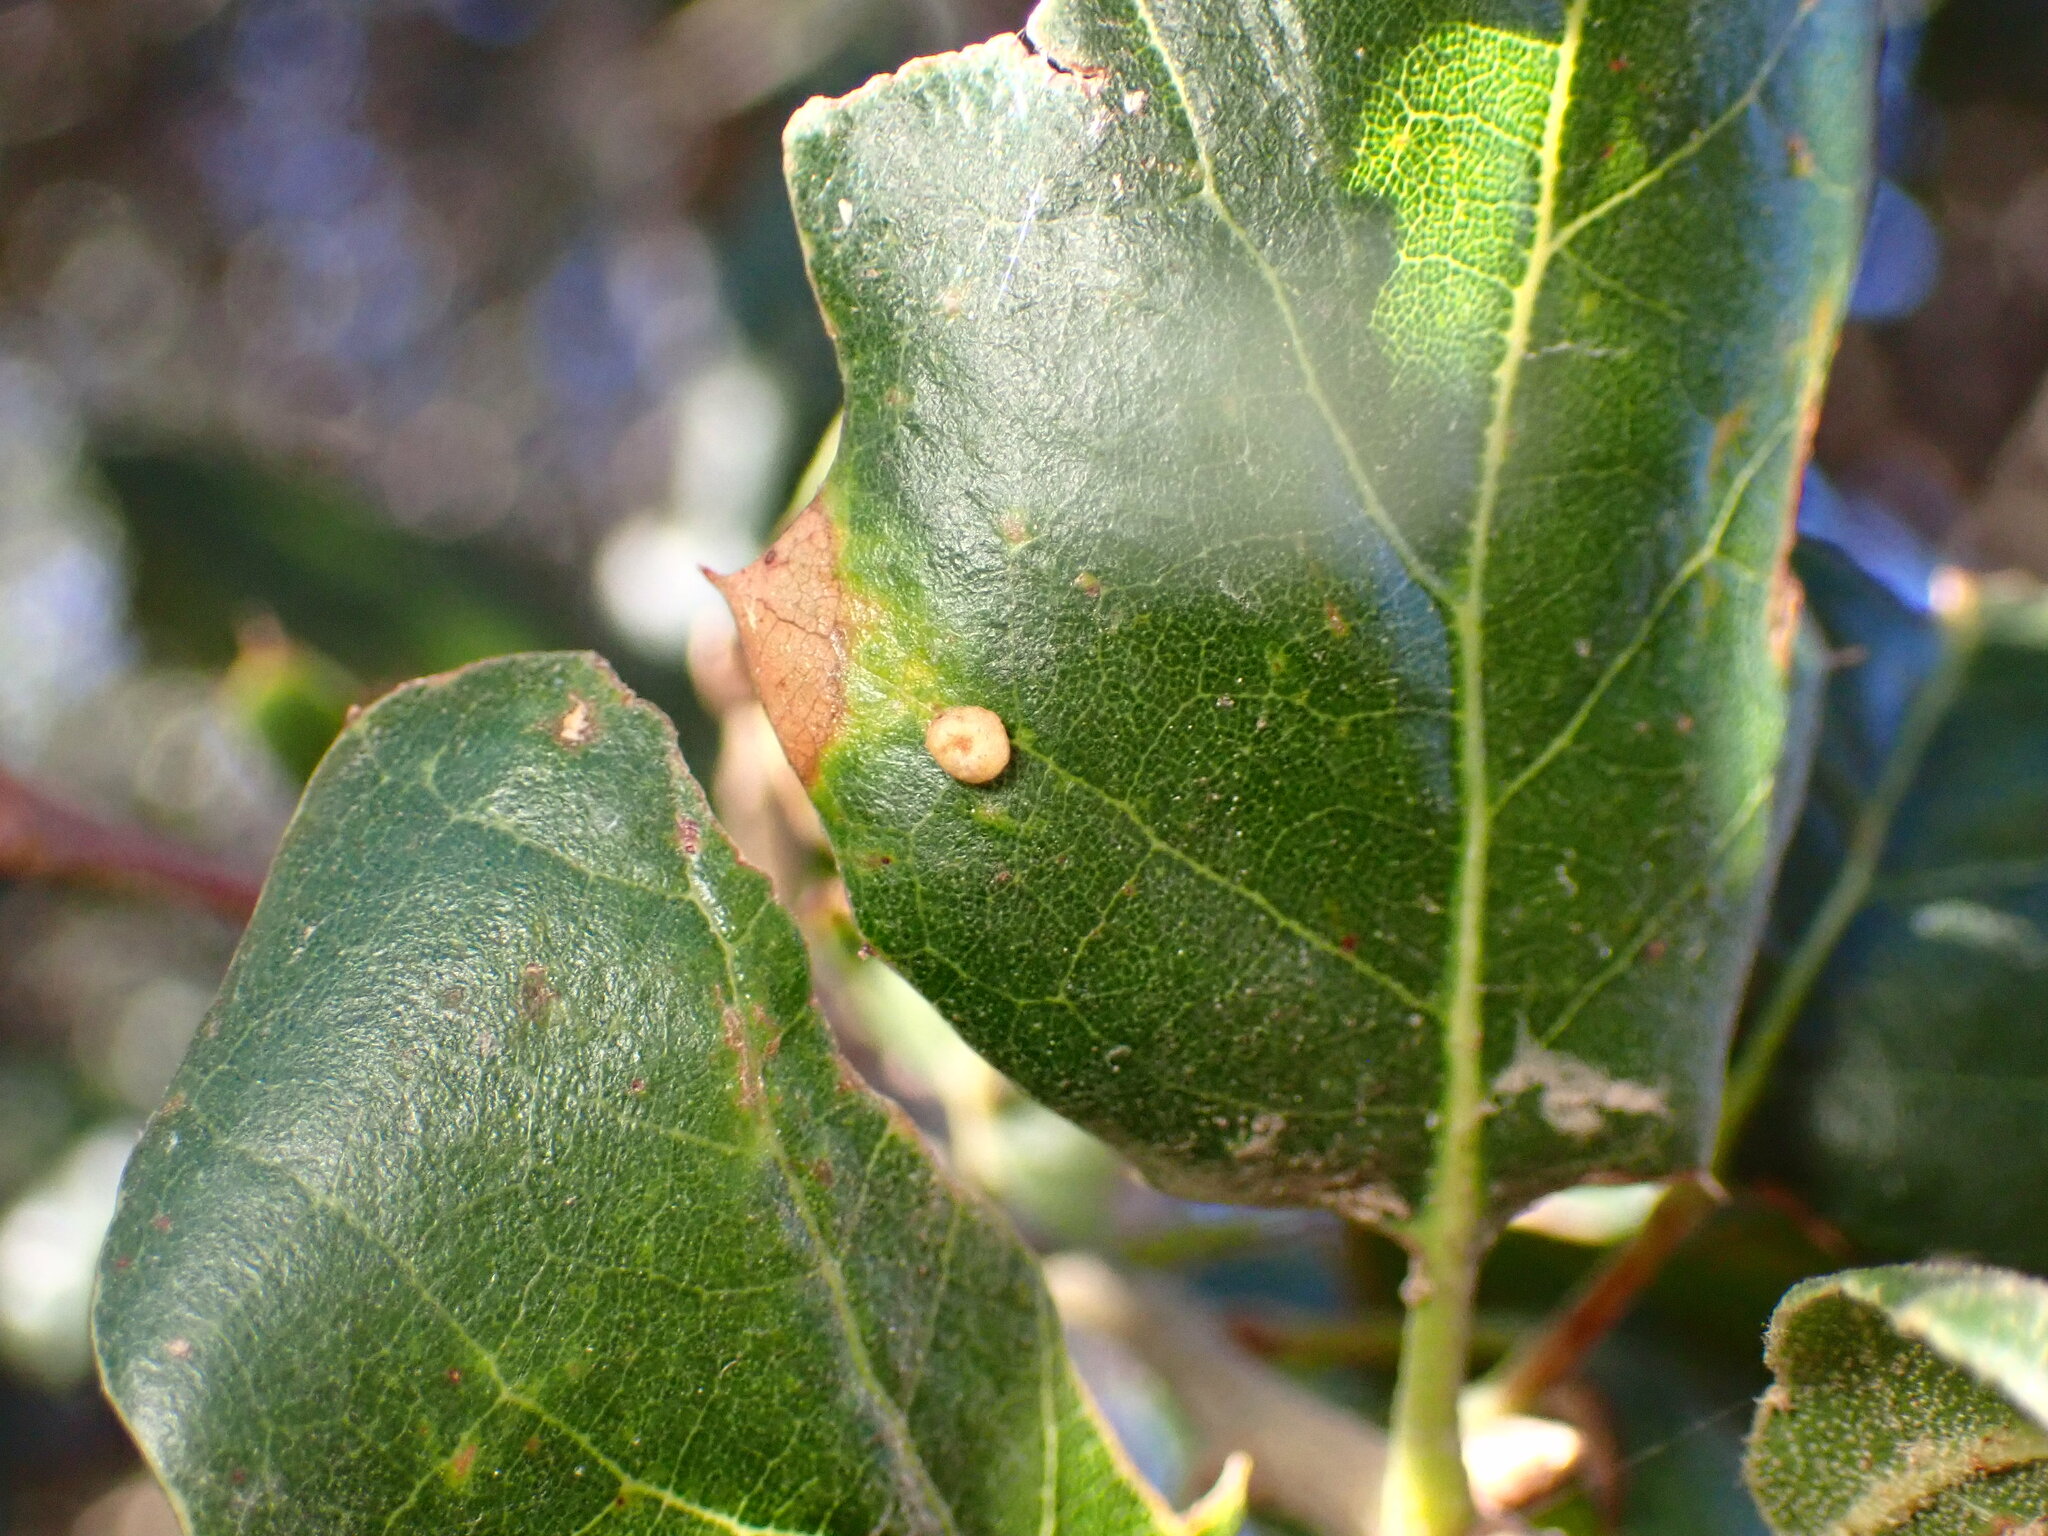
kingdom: Animalia
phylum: Arthropoda
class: Insecta
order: Hymenoptera
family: Cynipidae
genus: Dryocosmus
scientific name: Dryocosmus
